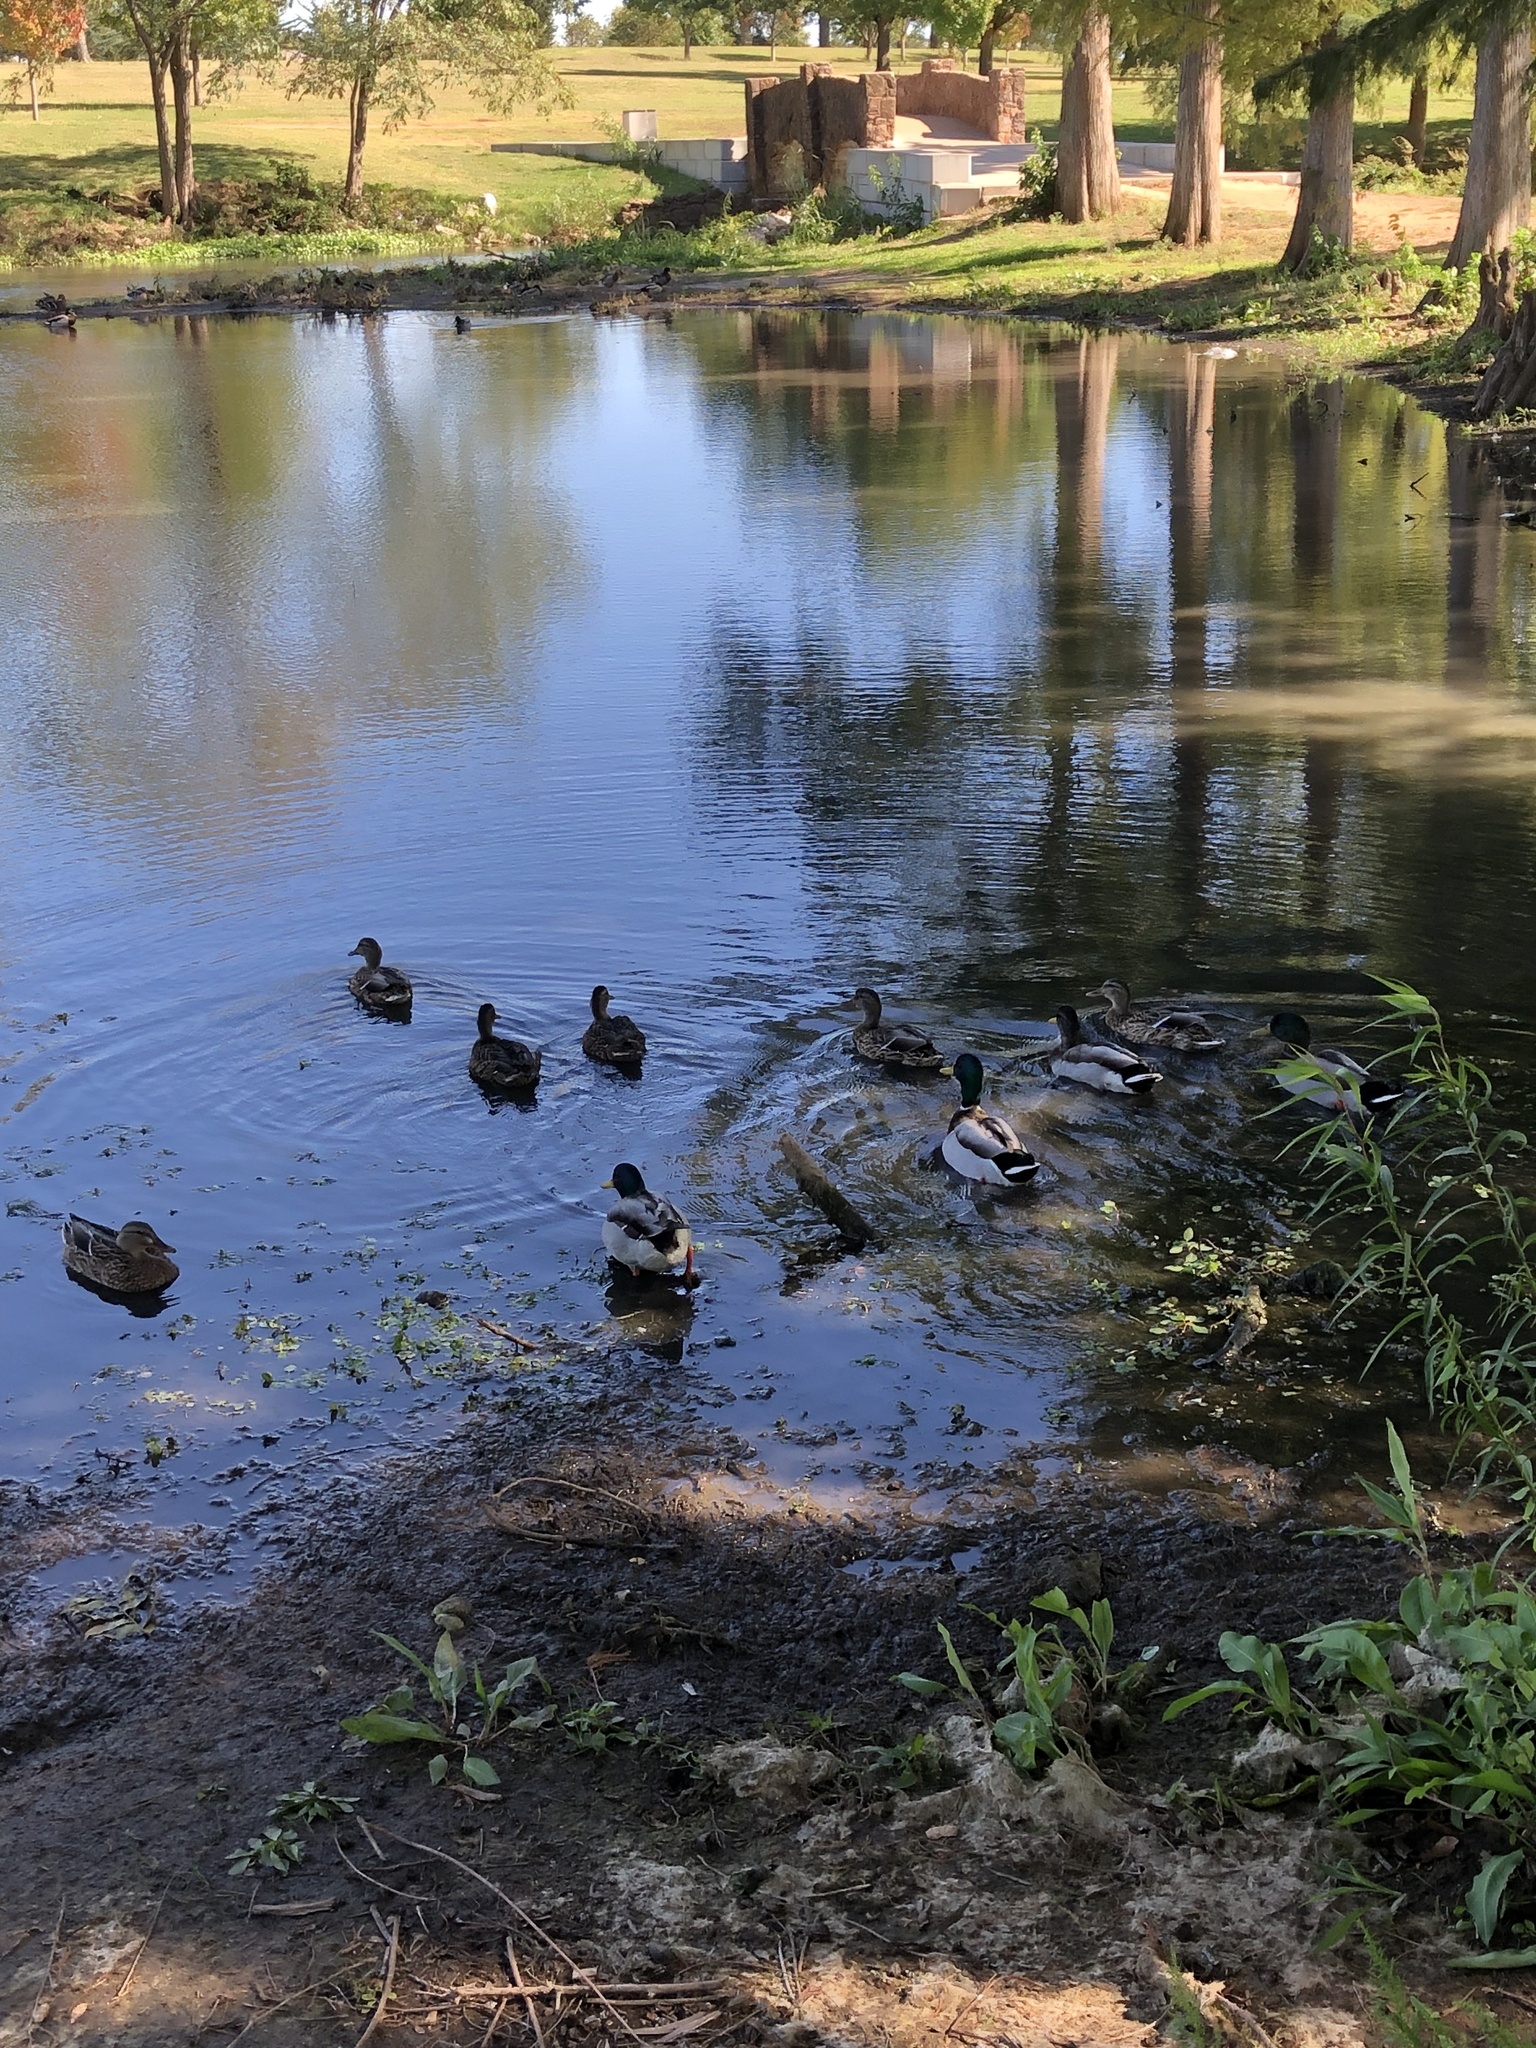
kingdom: Animalia
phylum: Chordata
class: Aves
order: Anseriformes
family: Anatidae
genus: Anas
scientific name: Anas platyrhynchos
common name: Mallard
